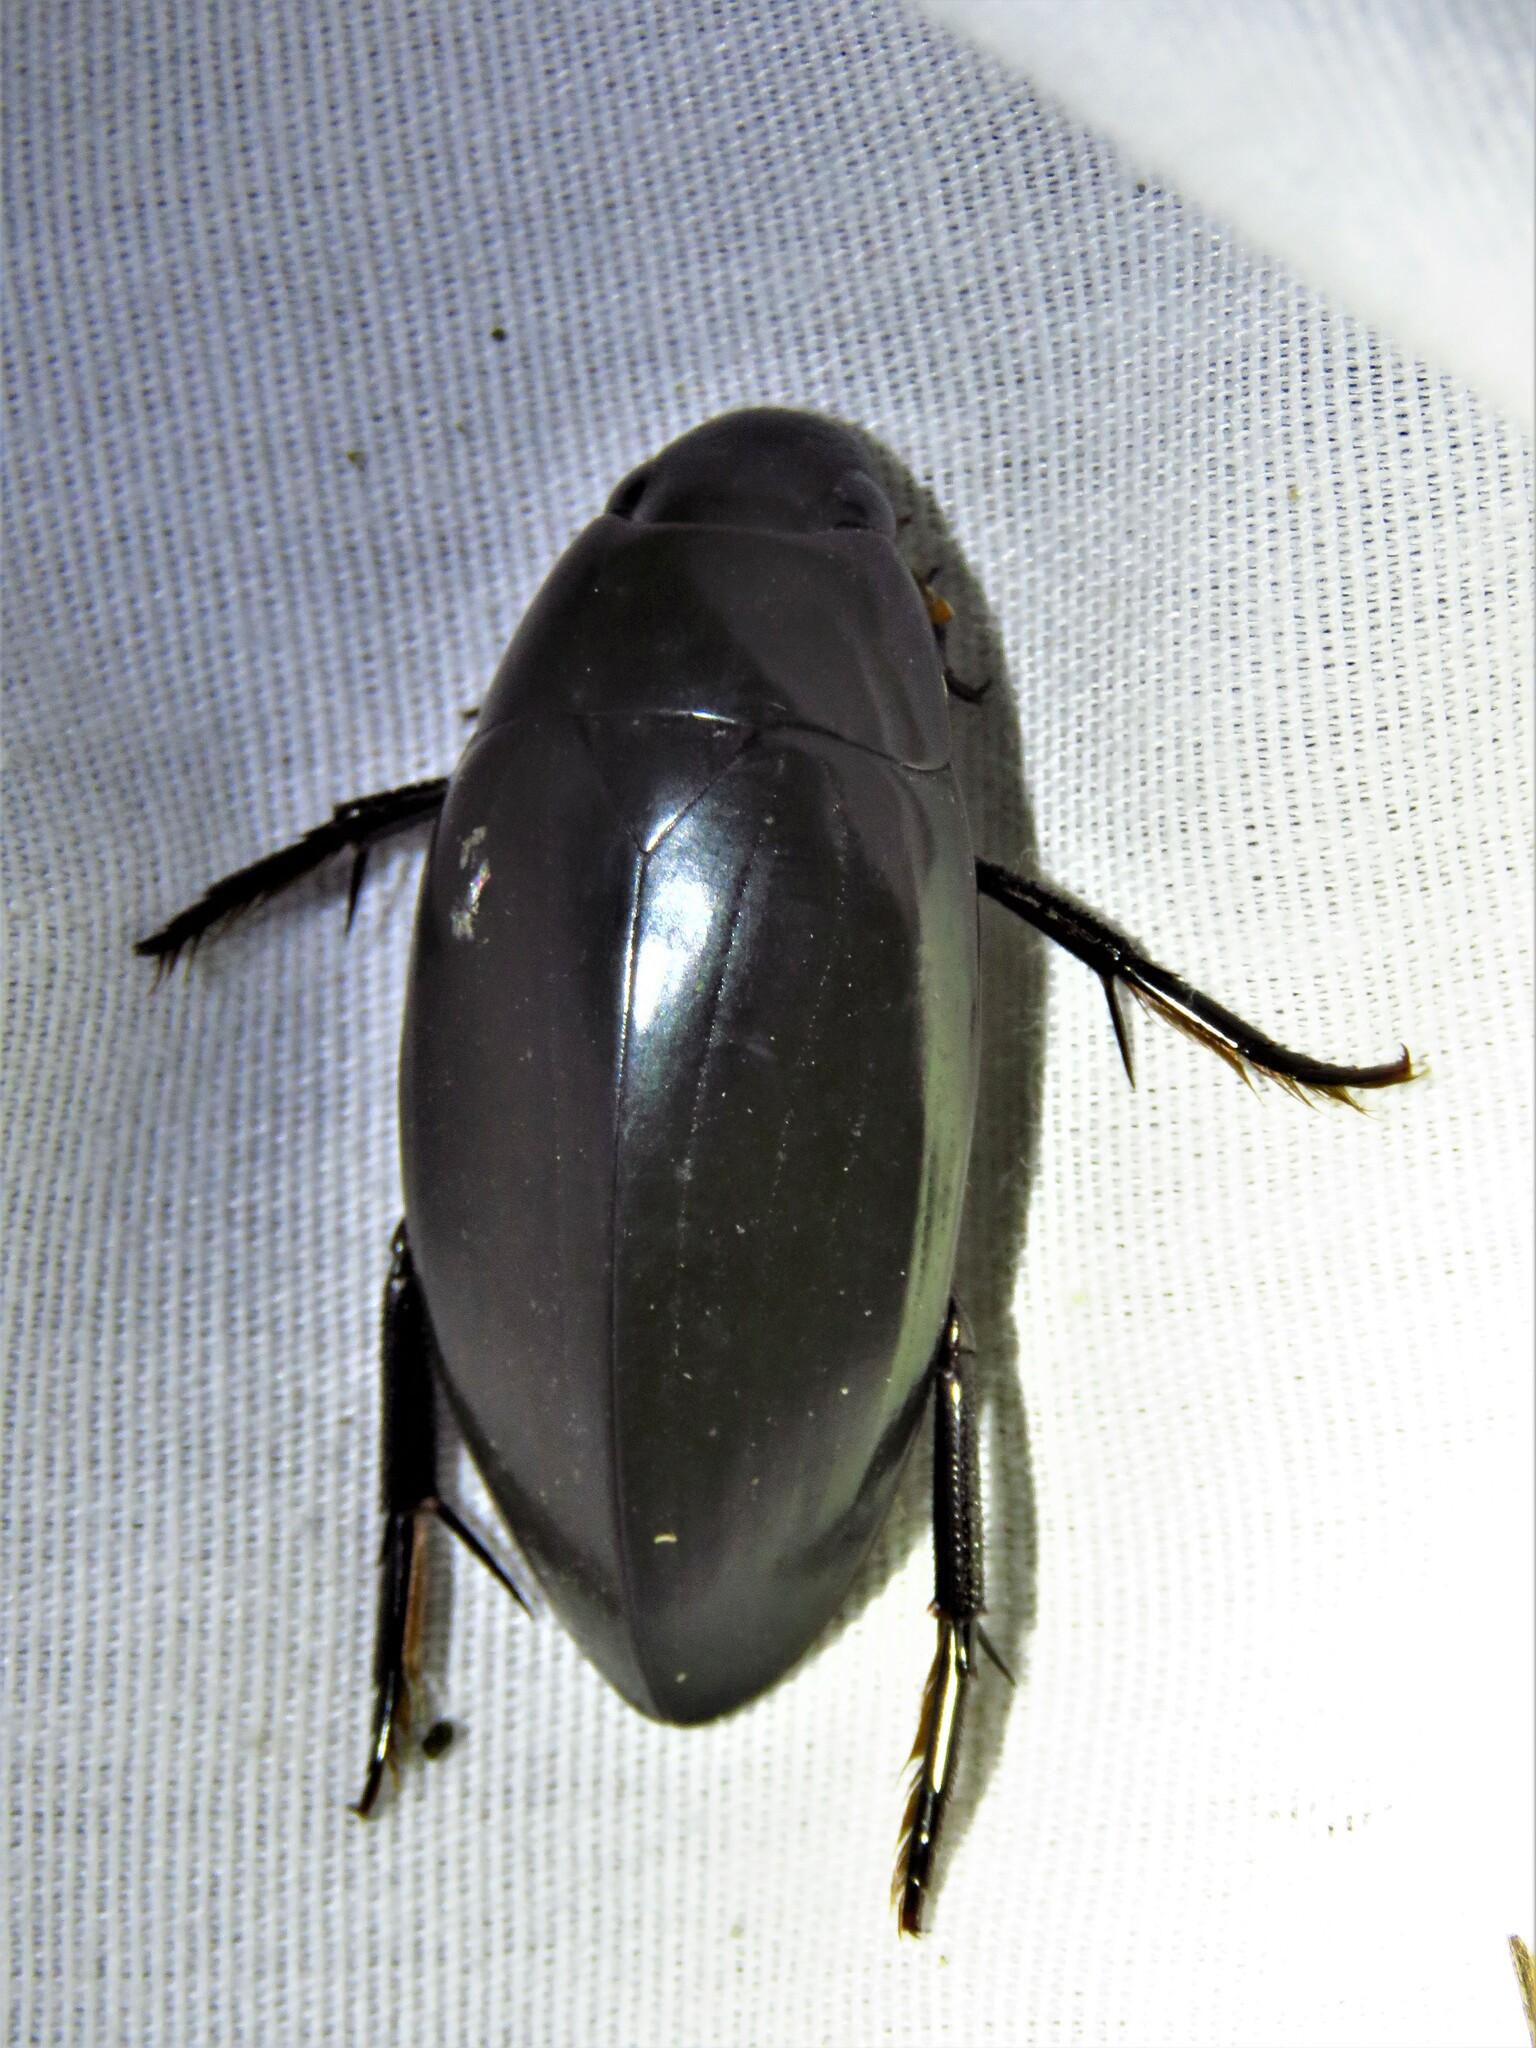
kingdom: Animalia
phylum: Arthropoda
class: Insecta
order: Coleoptera
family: Hydrophilidae
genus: Hydrophilus
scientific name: Hydrophilus
